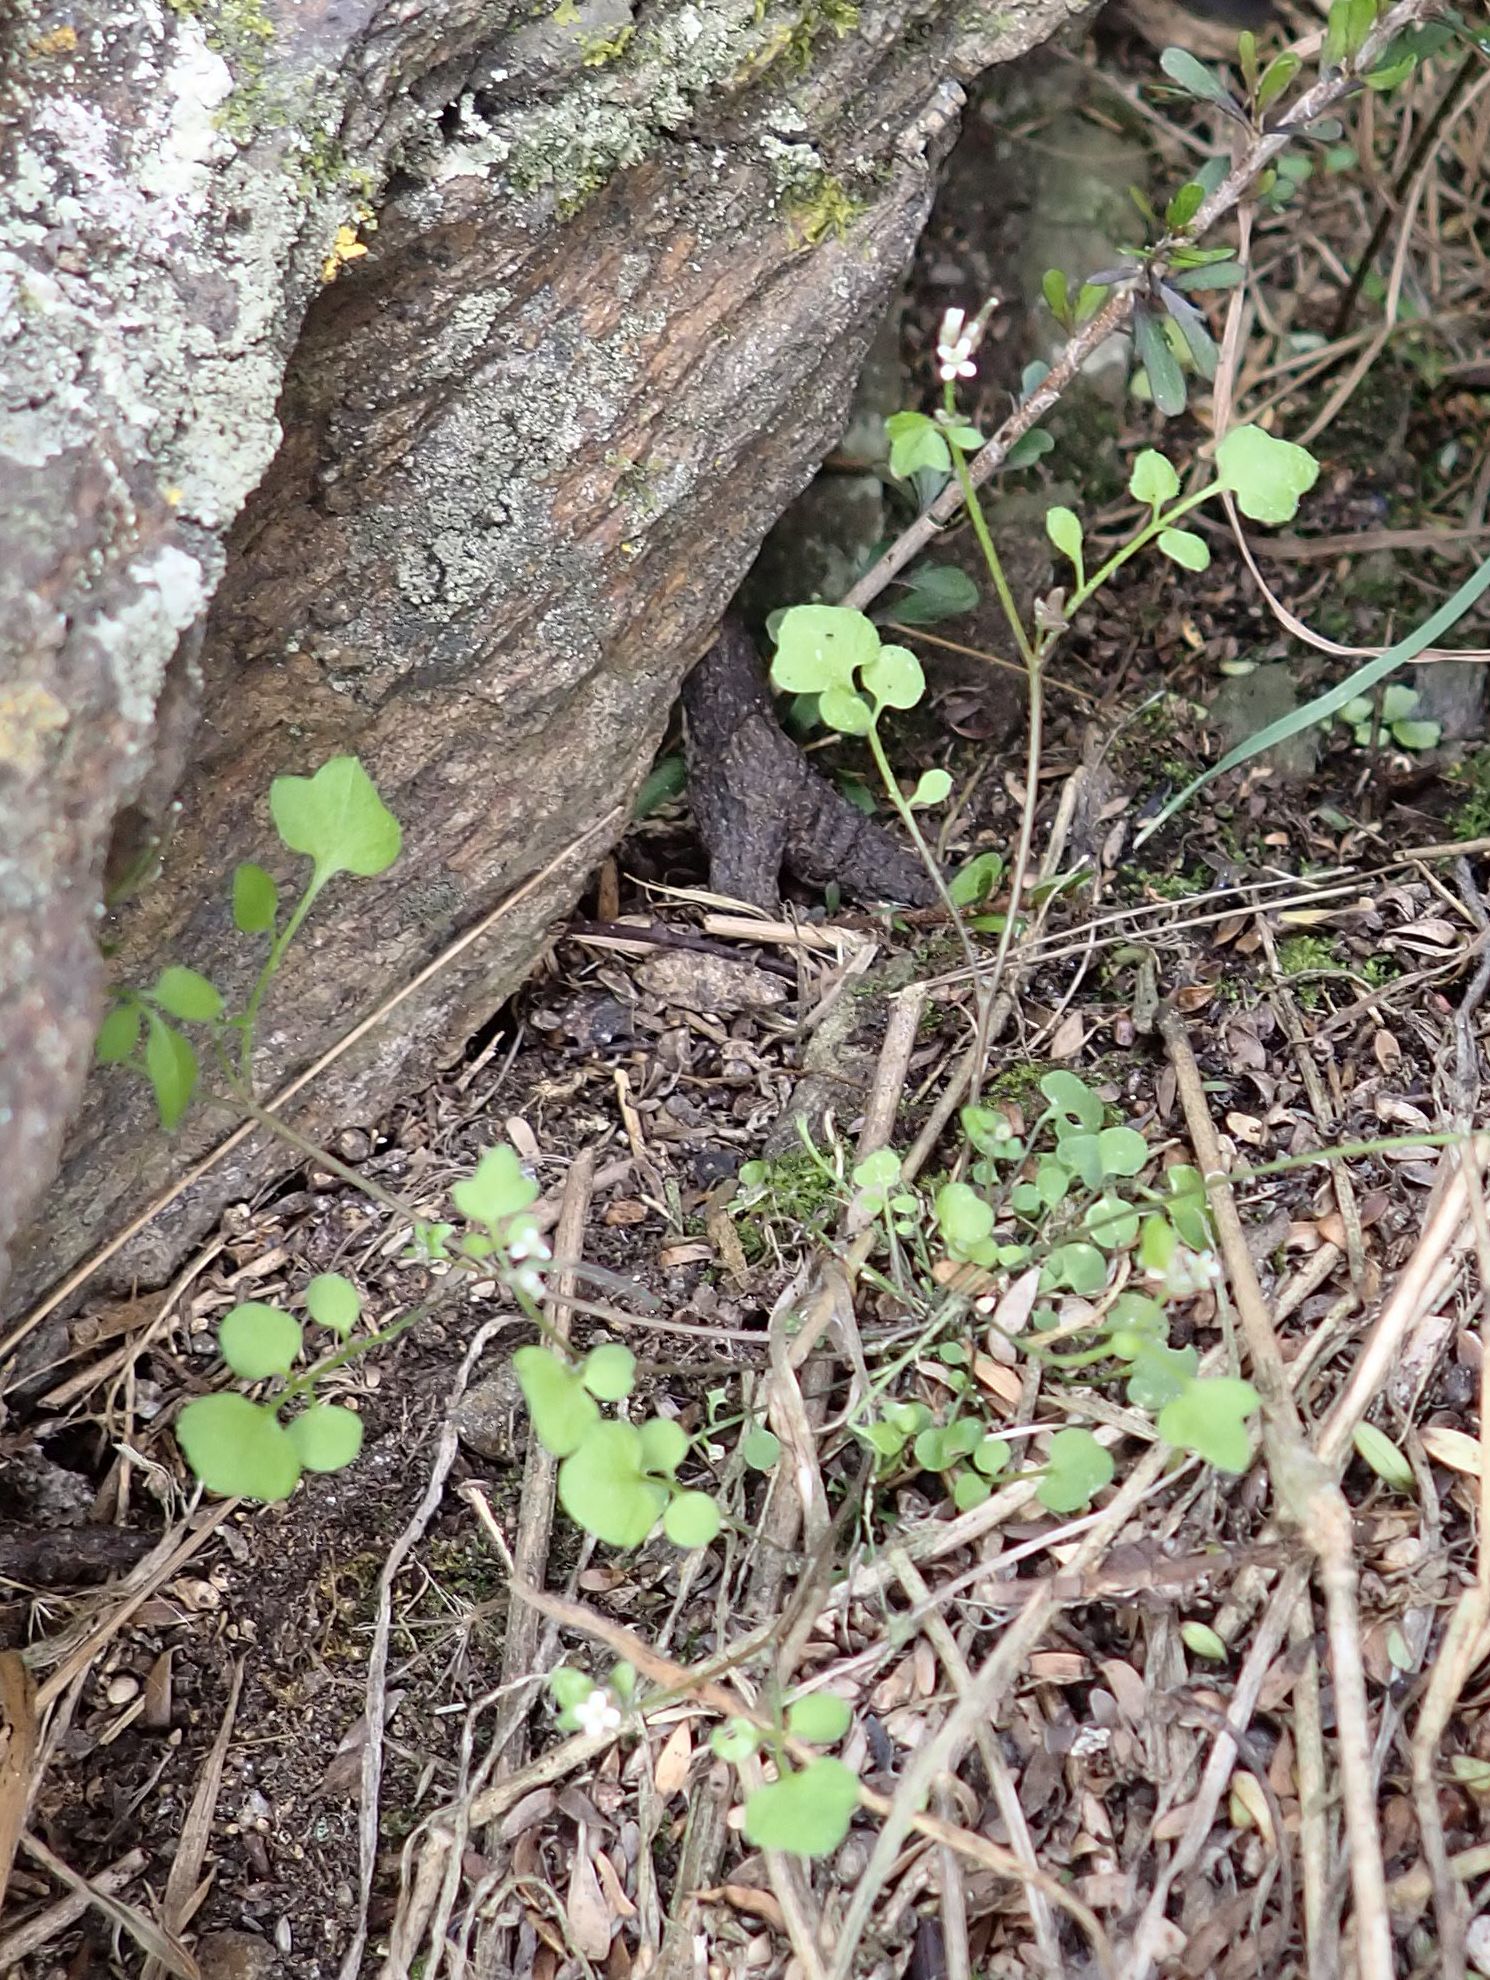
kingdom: Plantae
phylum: Tracheophyta
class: Magnoliopsida
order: Brassicales
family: Brassicaceae
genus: Cardamine
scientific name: Cardamine forsteri
